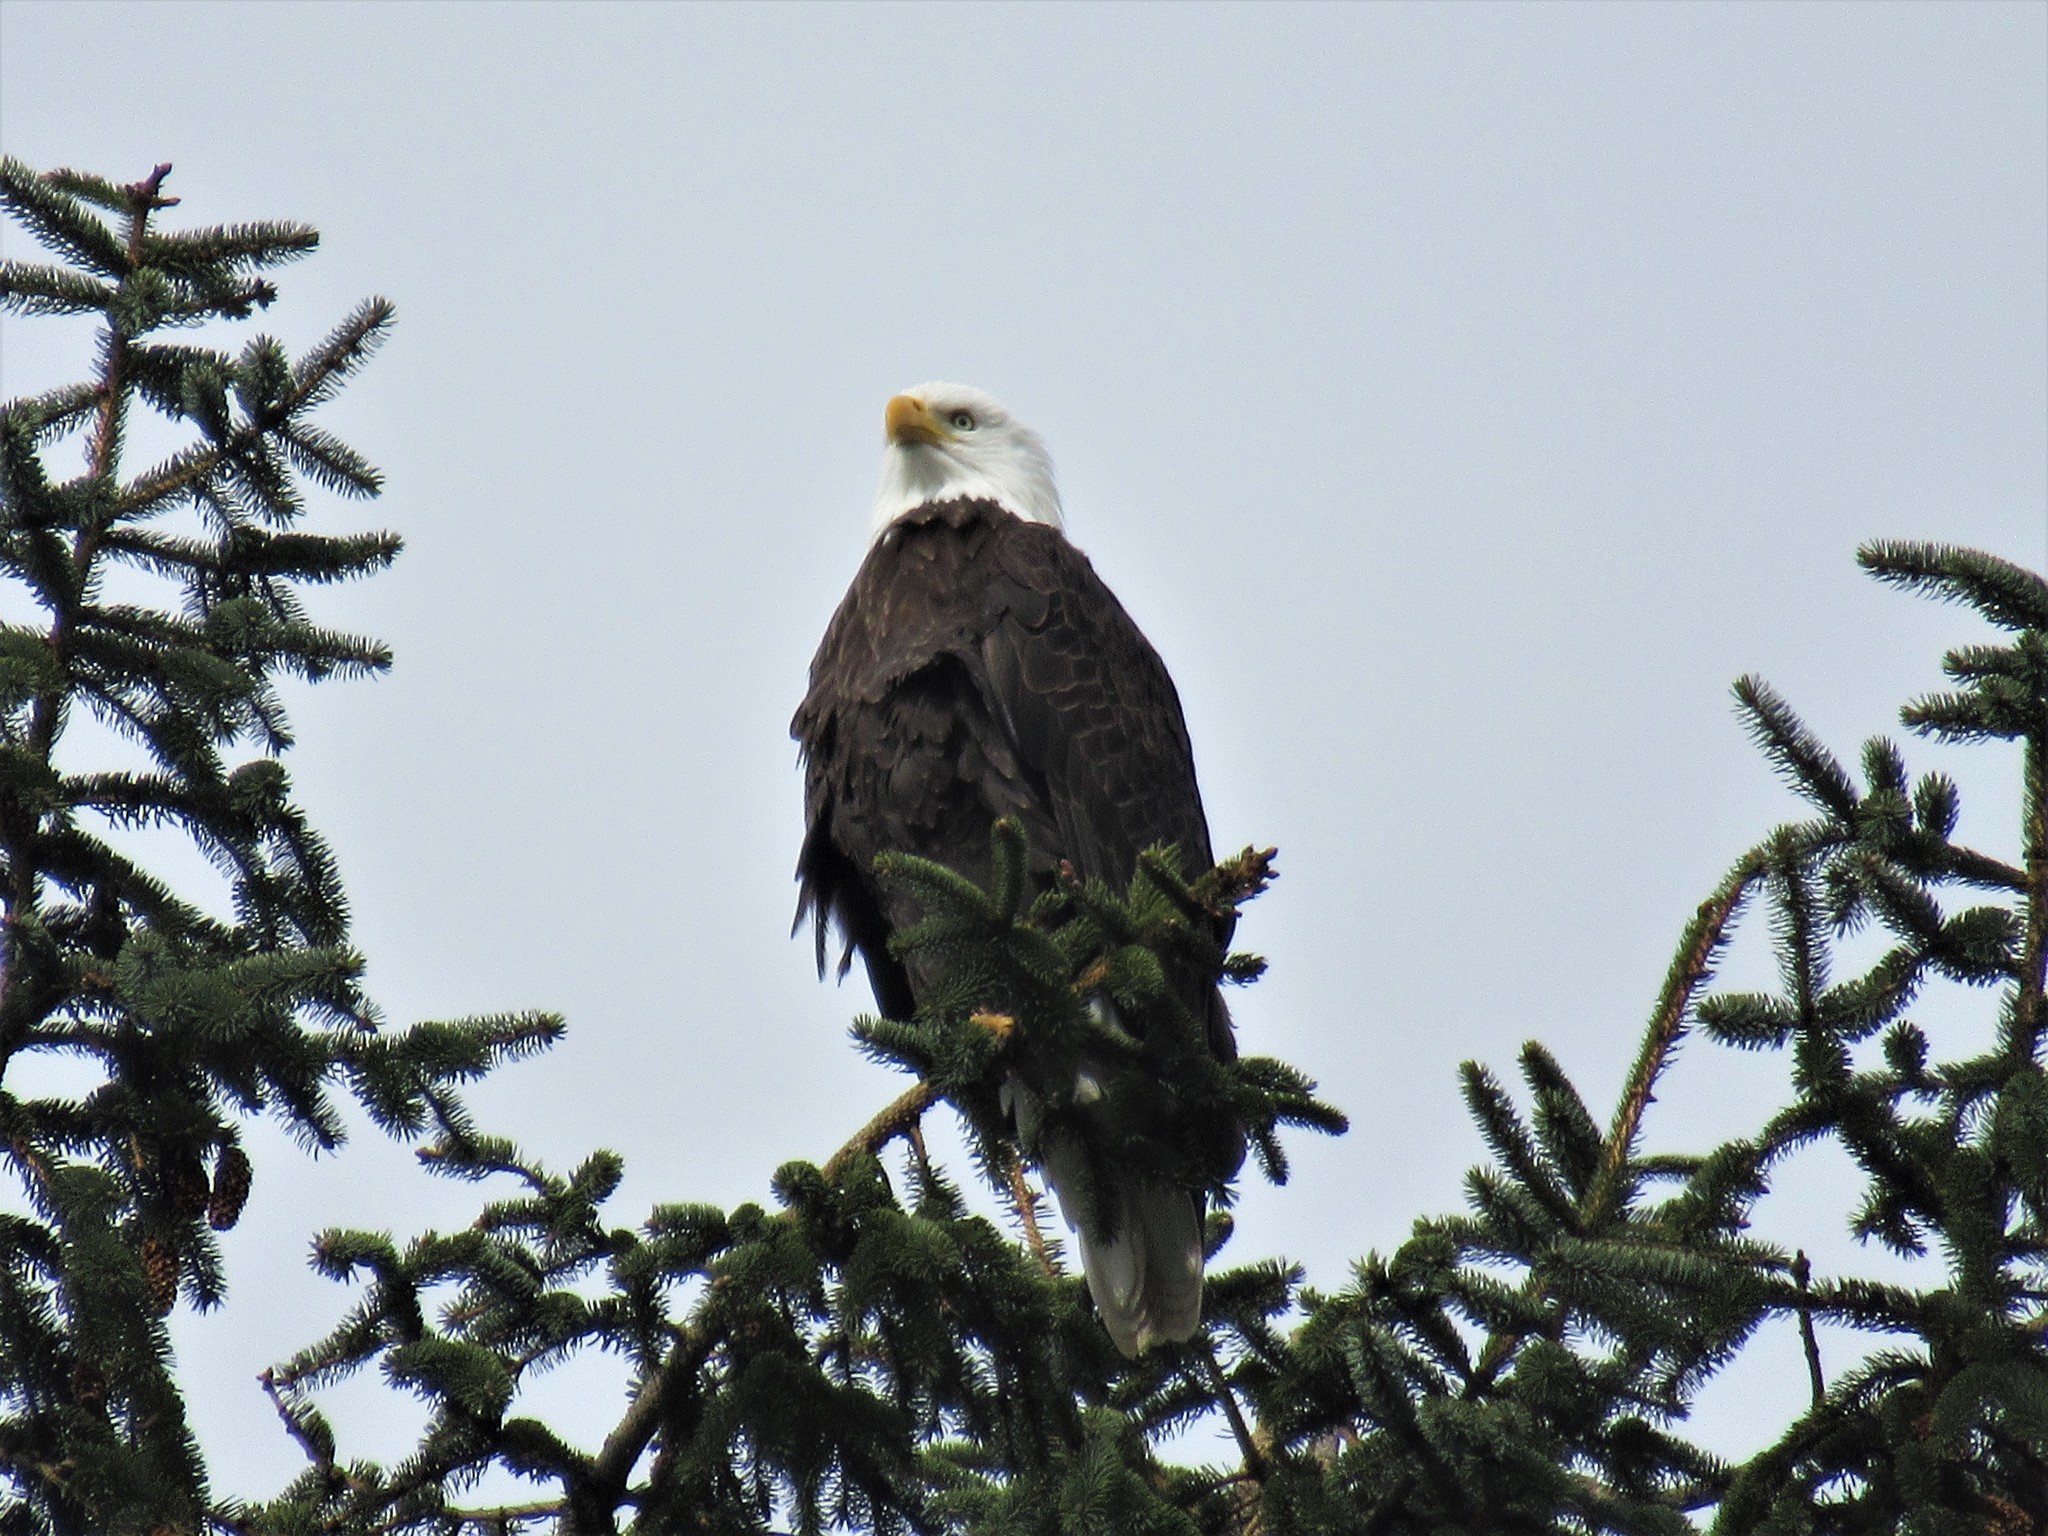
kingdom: Animalia
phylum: Chordata
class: Aves
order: Accipitriformes
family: Accipitridae
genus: Haliaeetus
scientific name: Haliaeetus leucocephalus
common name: Bald eagle
